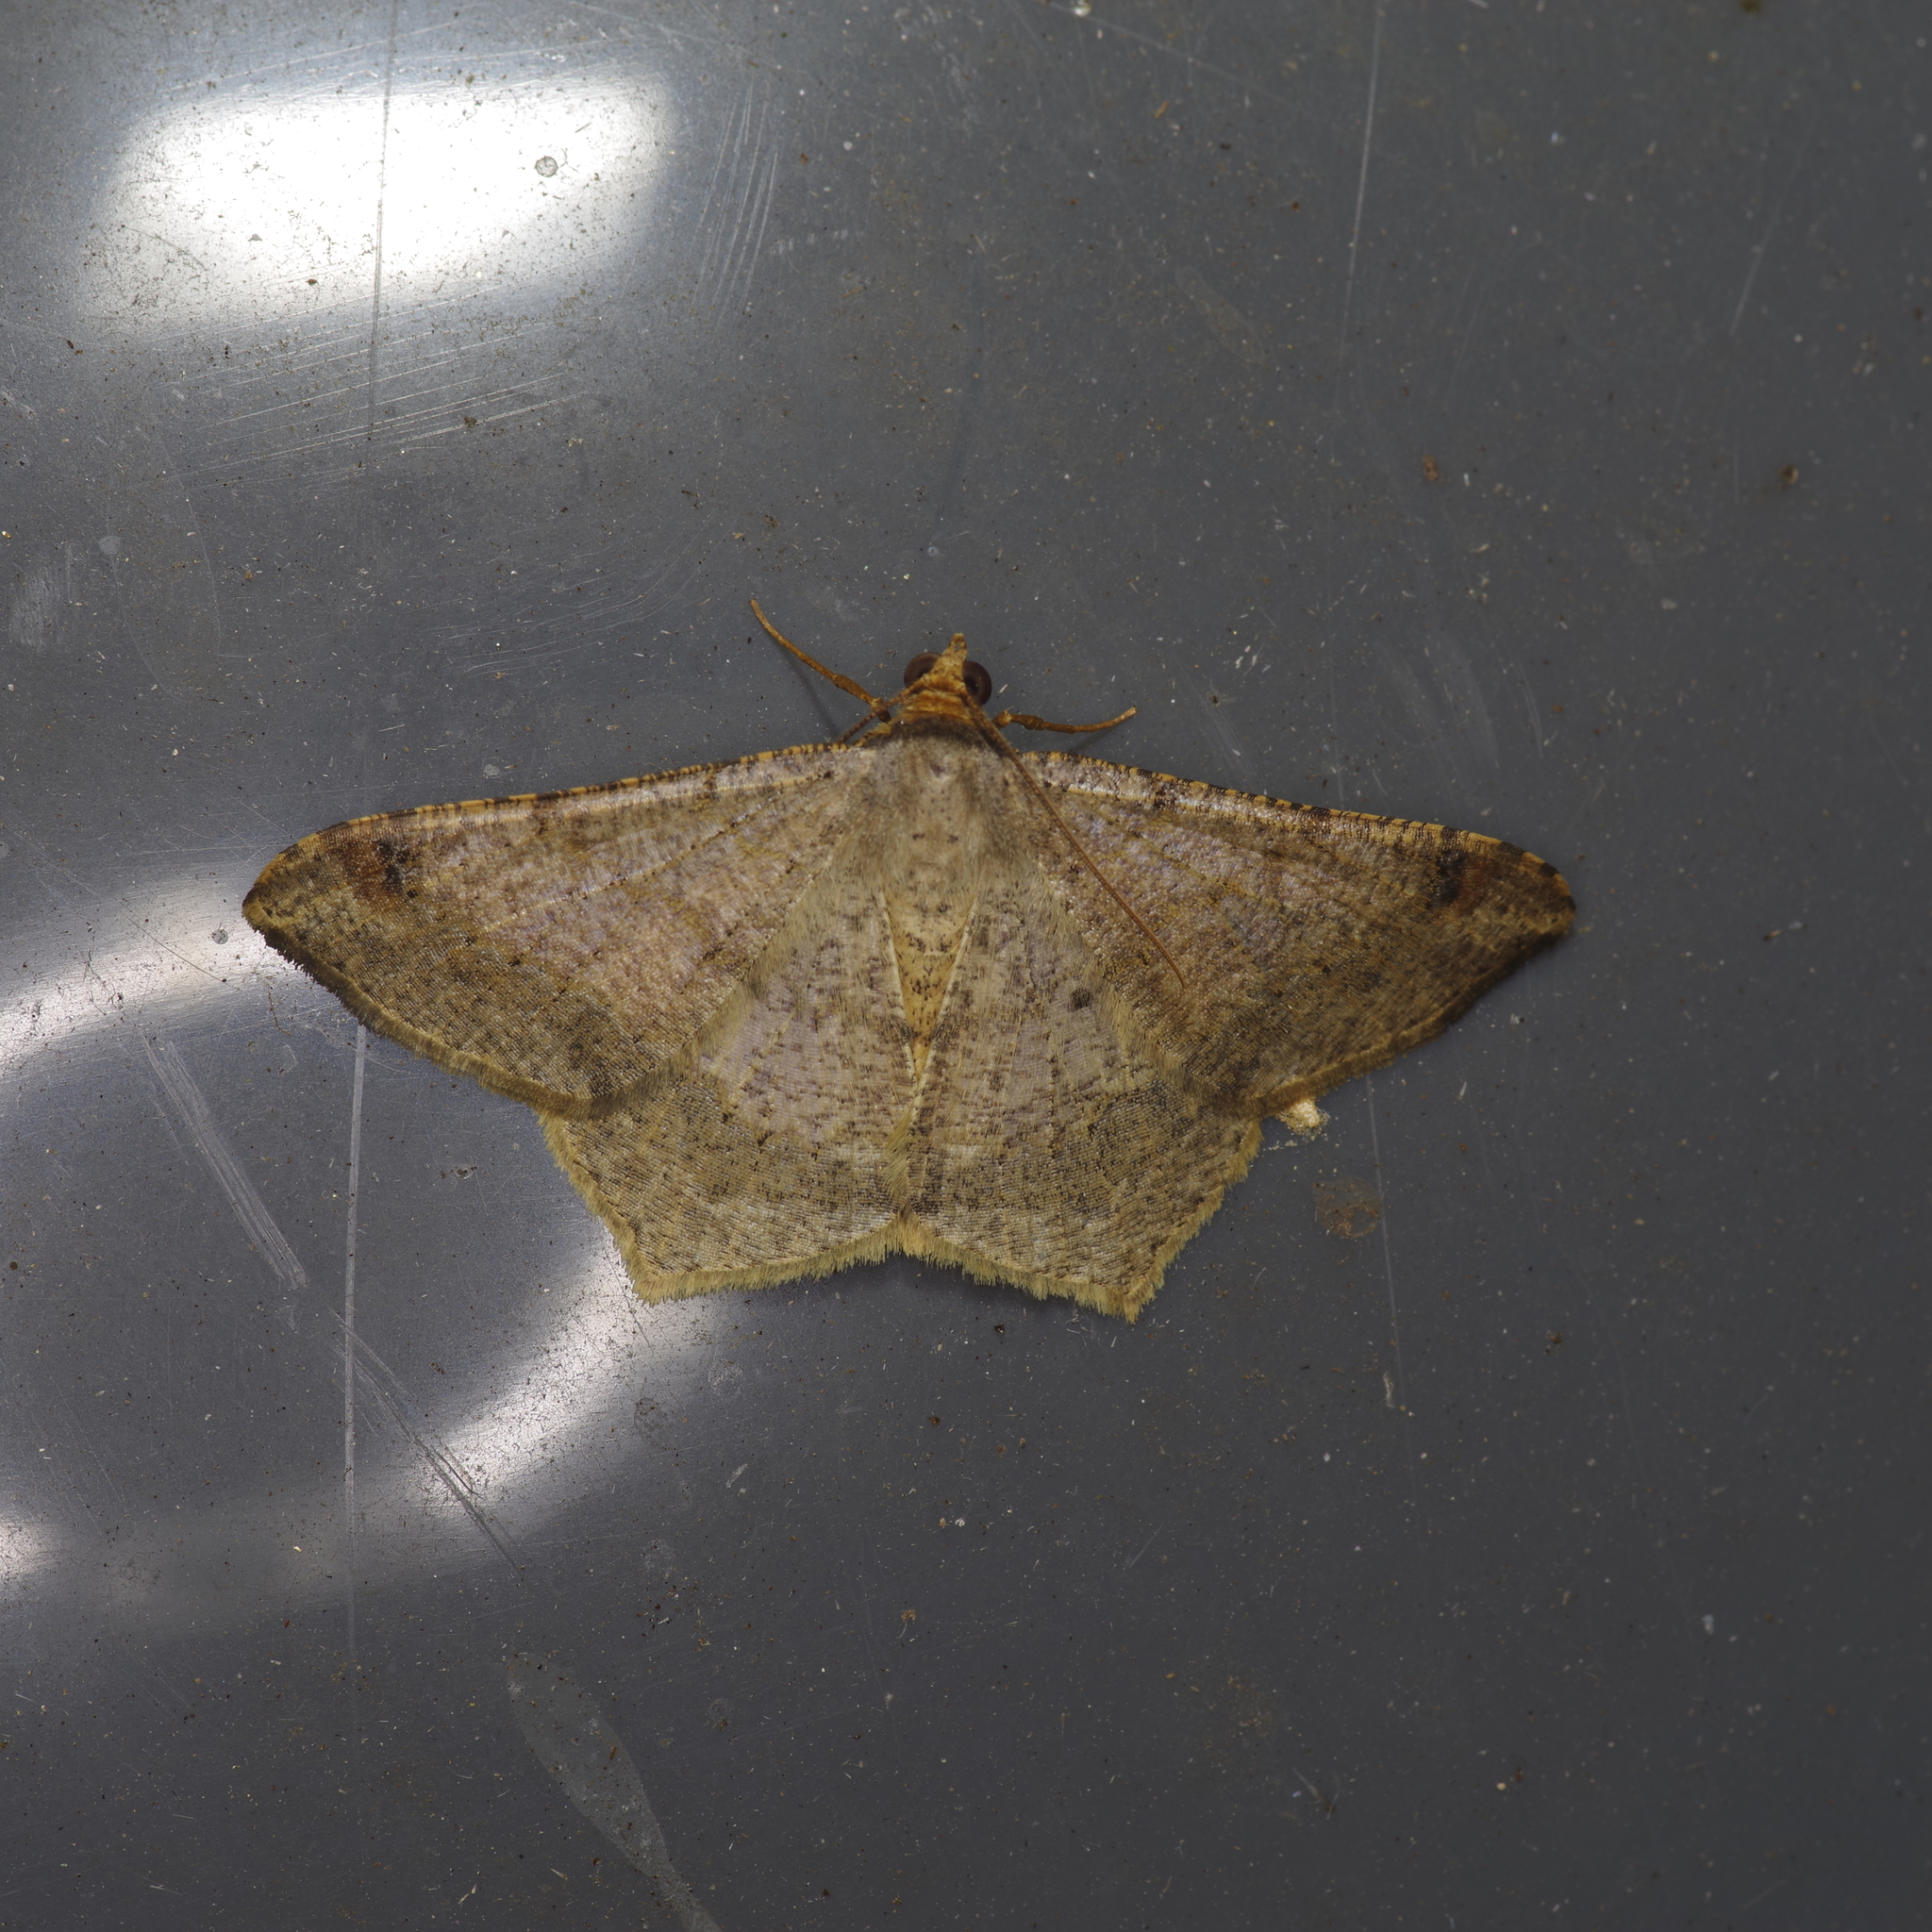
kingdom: Animalia
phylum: Arthropoda
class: Insecta
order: Lepidoptera
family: Geometridae
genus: Macaria
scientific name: Macaria abydata
